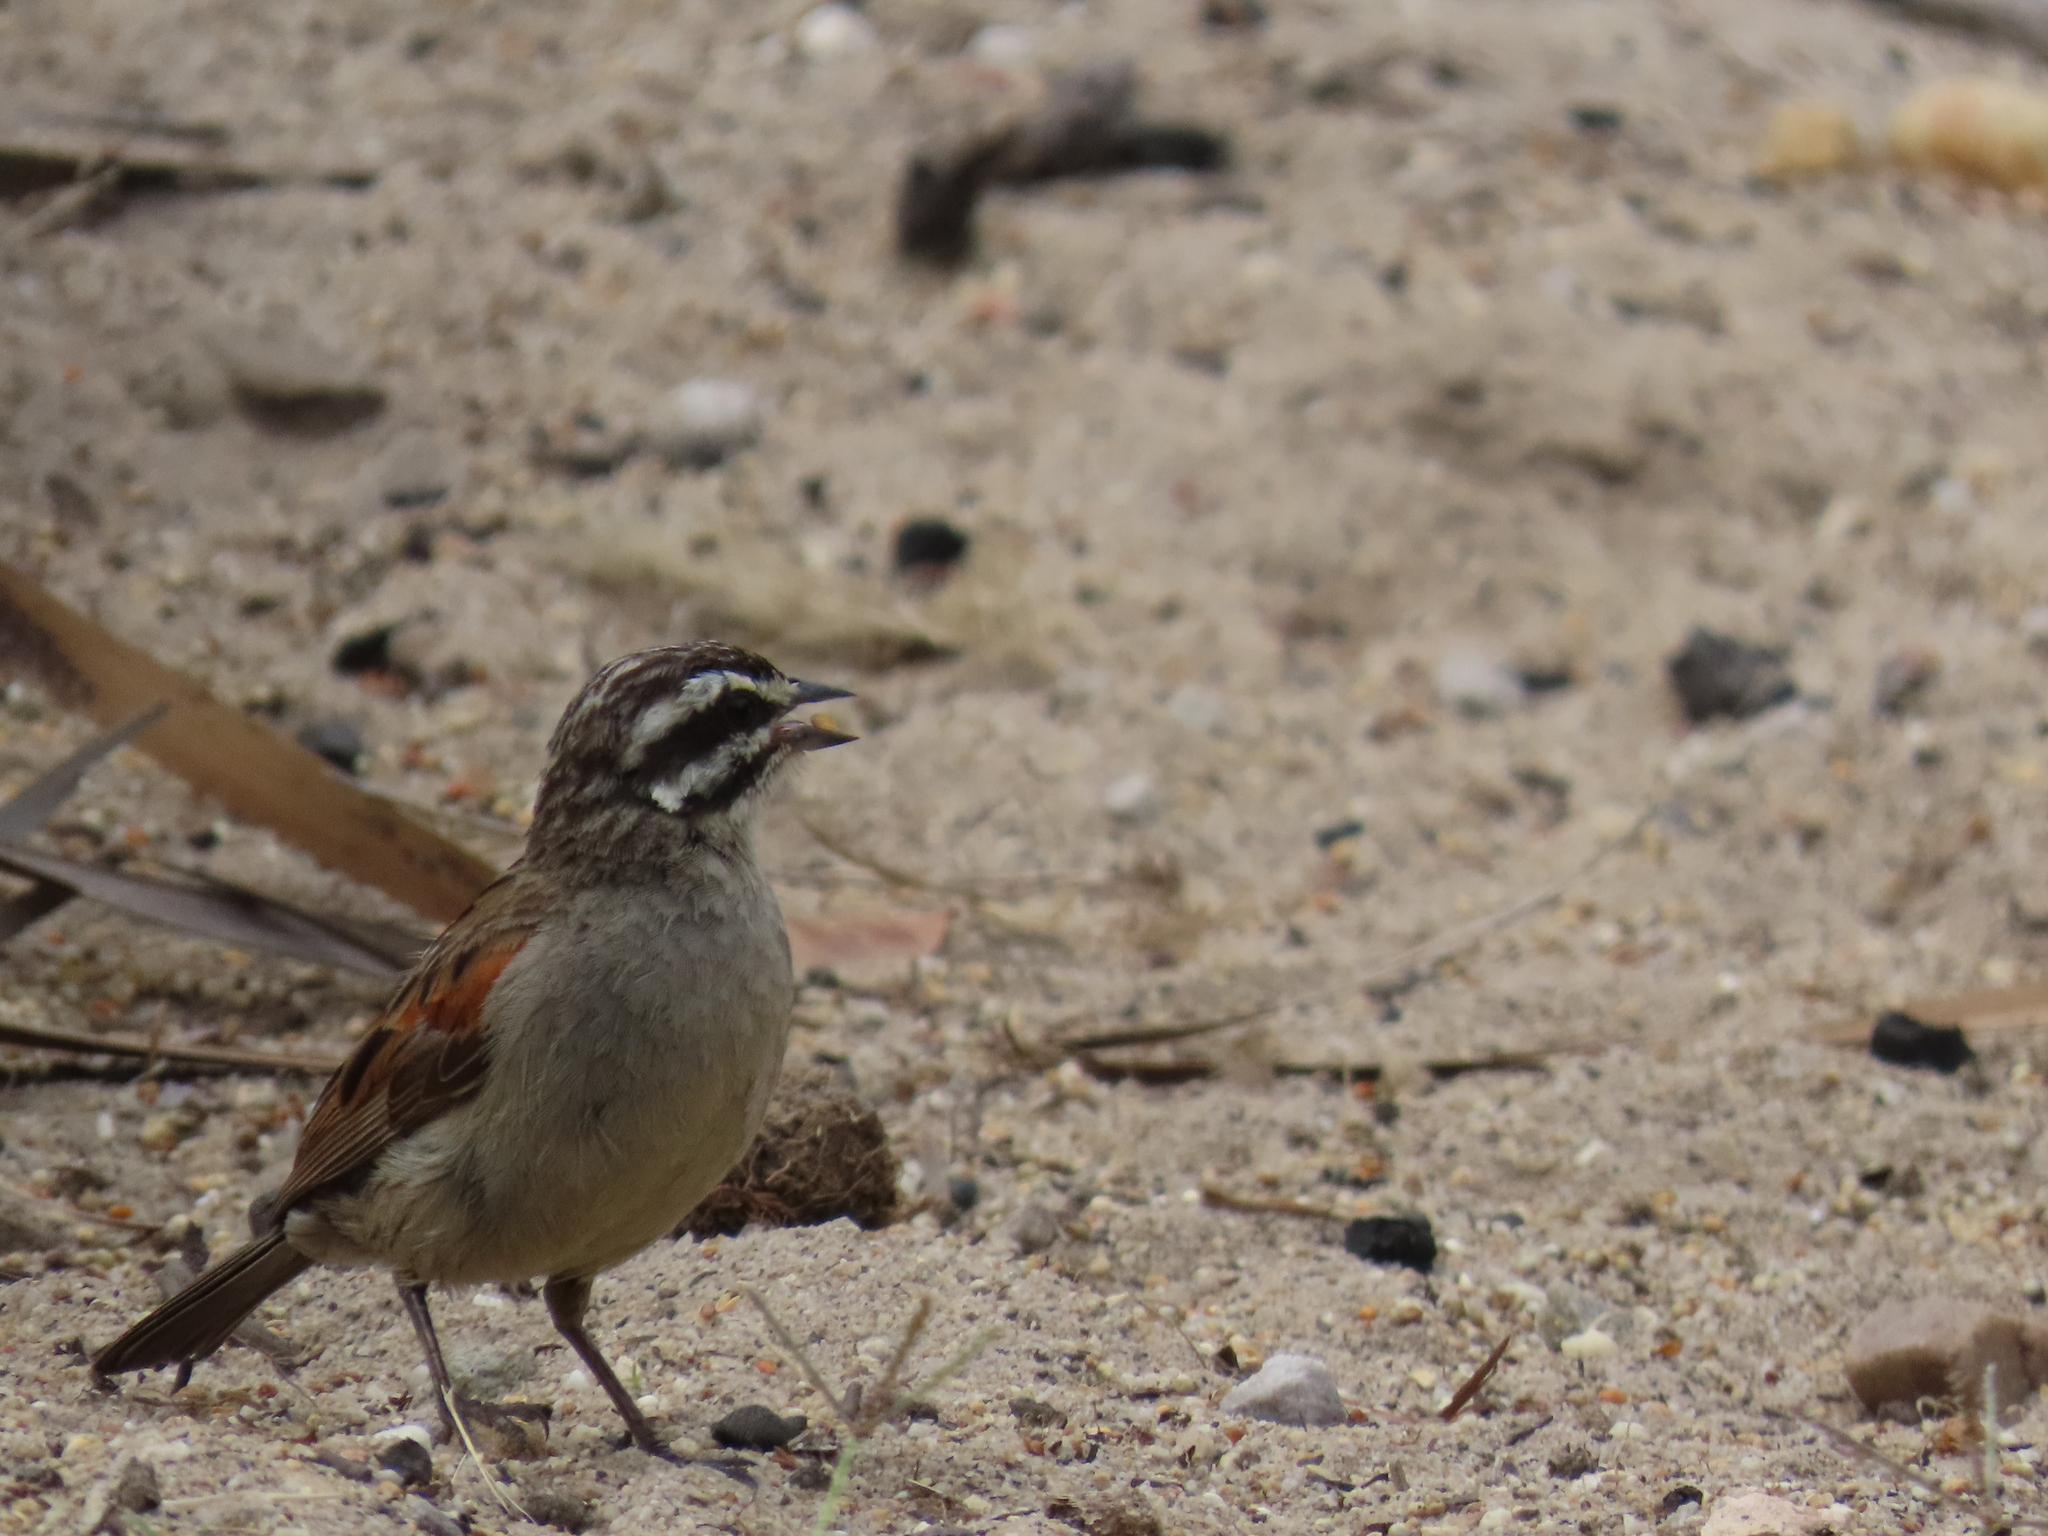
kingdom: Animalia
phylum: Chordata
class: Aves
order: Passeriformes
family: Emberizidae
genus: Emberiza
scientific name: Emberiza capensis
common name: Cape bunting
